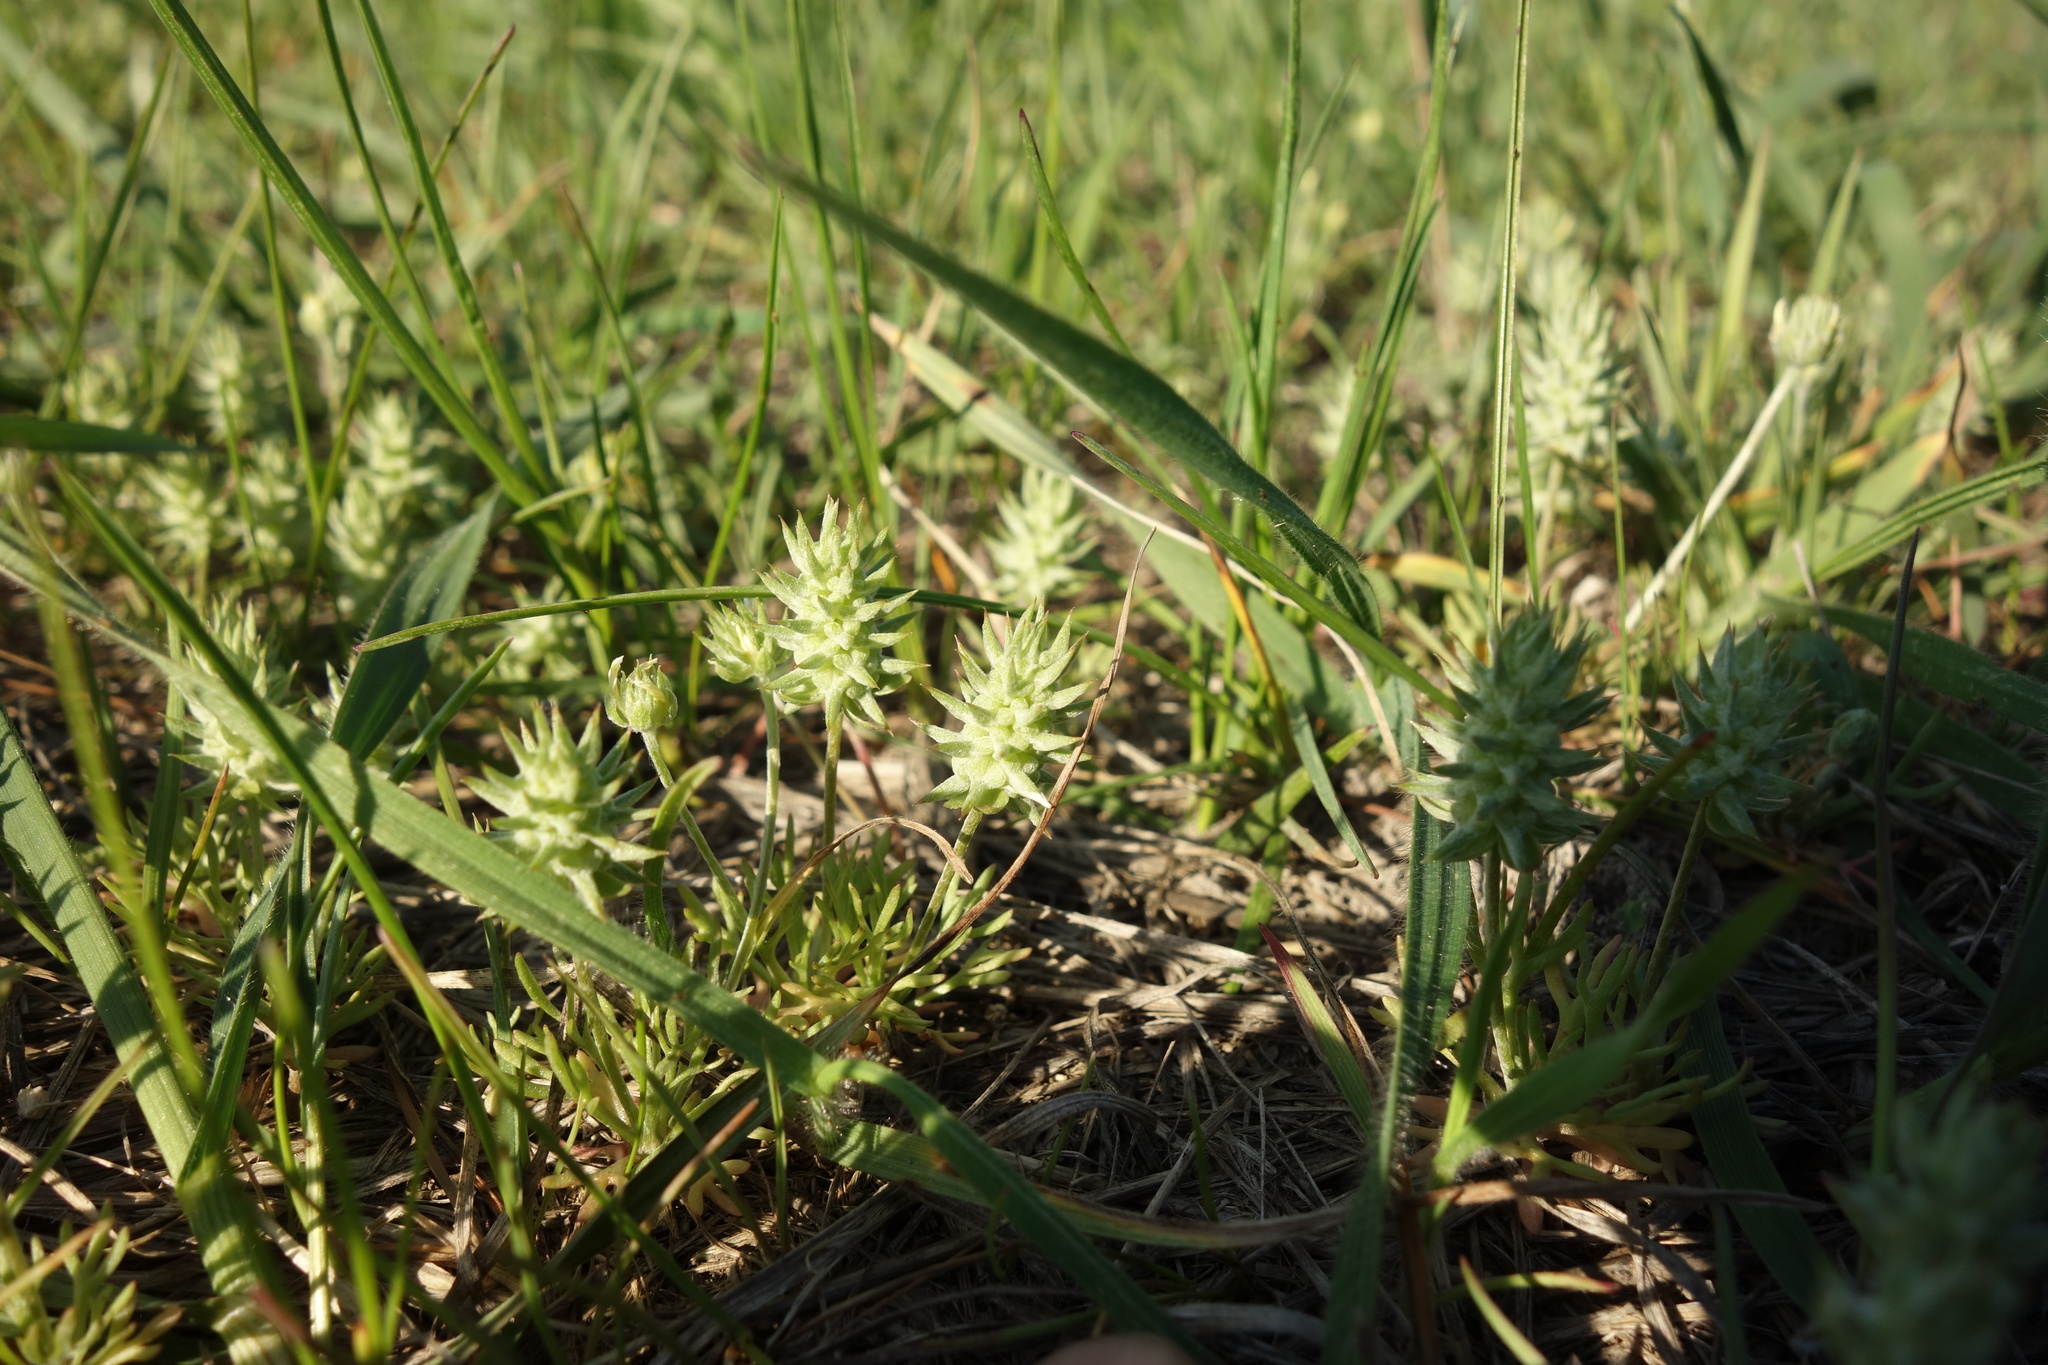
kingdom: Plantae
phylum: Tracheophyta
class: Magnoliopsida
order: Ranunculales
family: Ranunculaceae
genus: Ceratocephala
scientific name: Ceratocephala orthoceras
